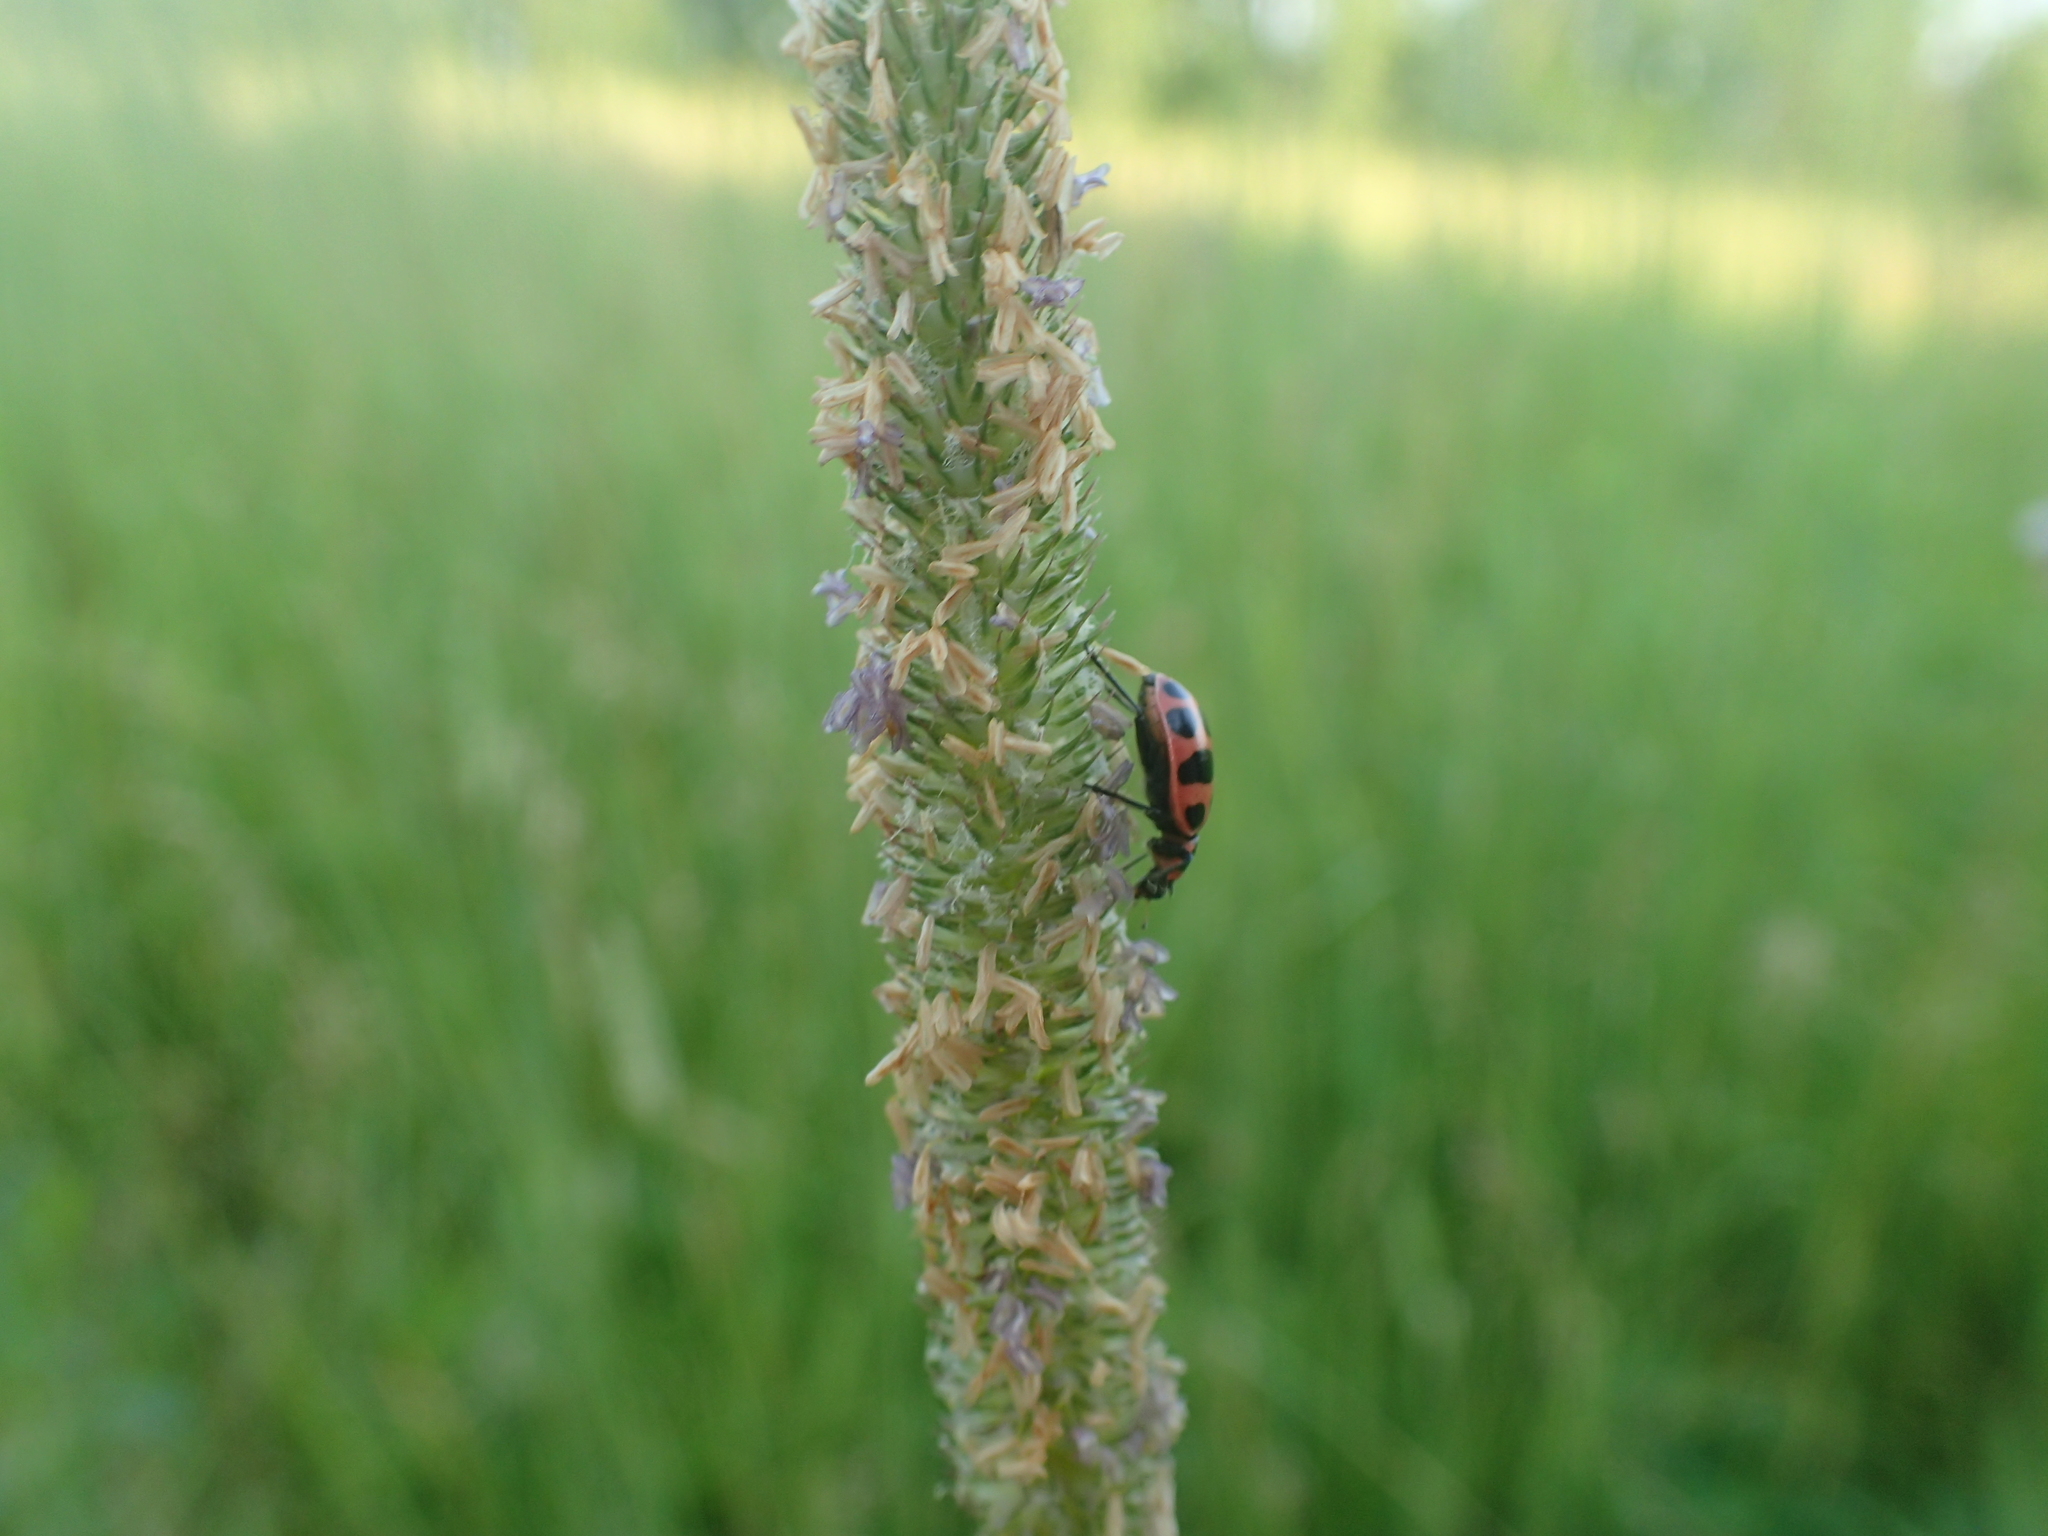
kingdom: Animalia
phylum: Arthropoda
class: Insecta
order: Coleoptera
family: Coccinellidae
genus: Coleomegilla
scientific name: Coleomegilla maculata
